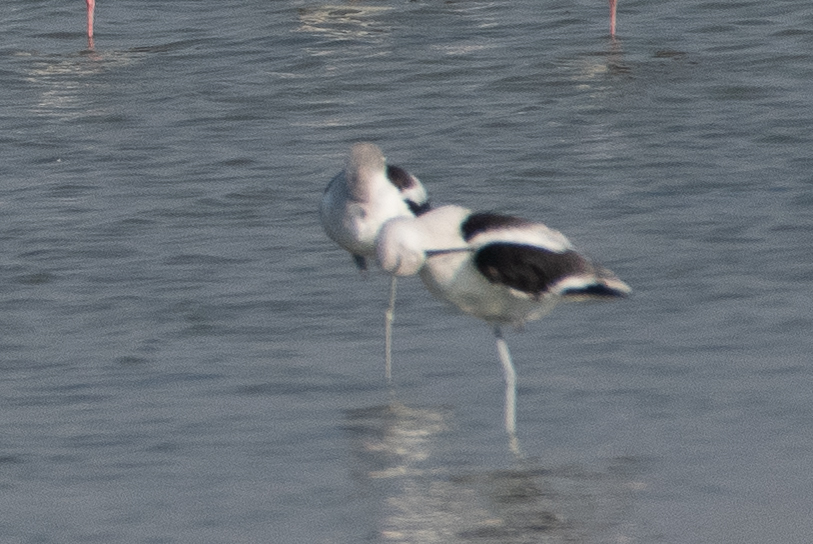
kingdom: Animalia
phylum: Chordata
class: Aves
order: Charadriiformes
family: Recurvirostridae
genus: Recurvirostra
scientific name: Recurvirostra americana
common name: American avocet
